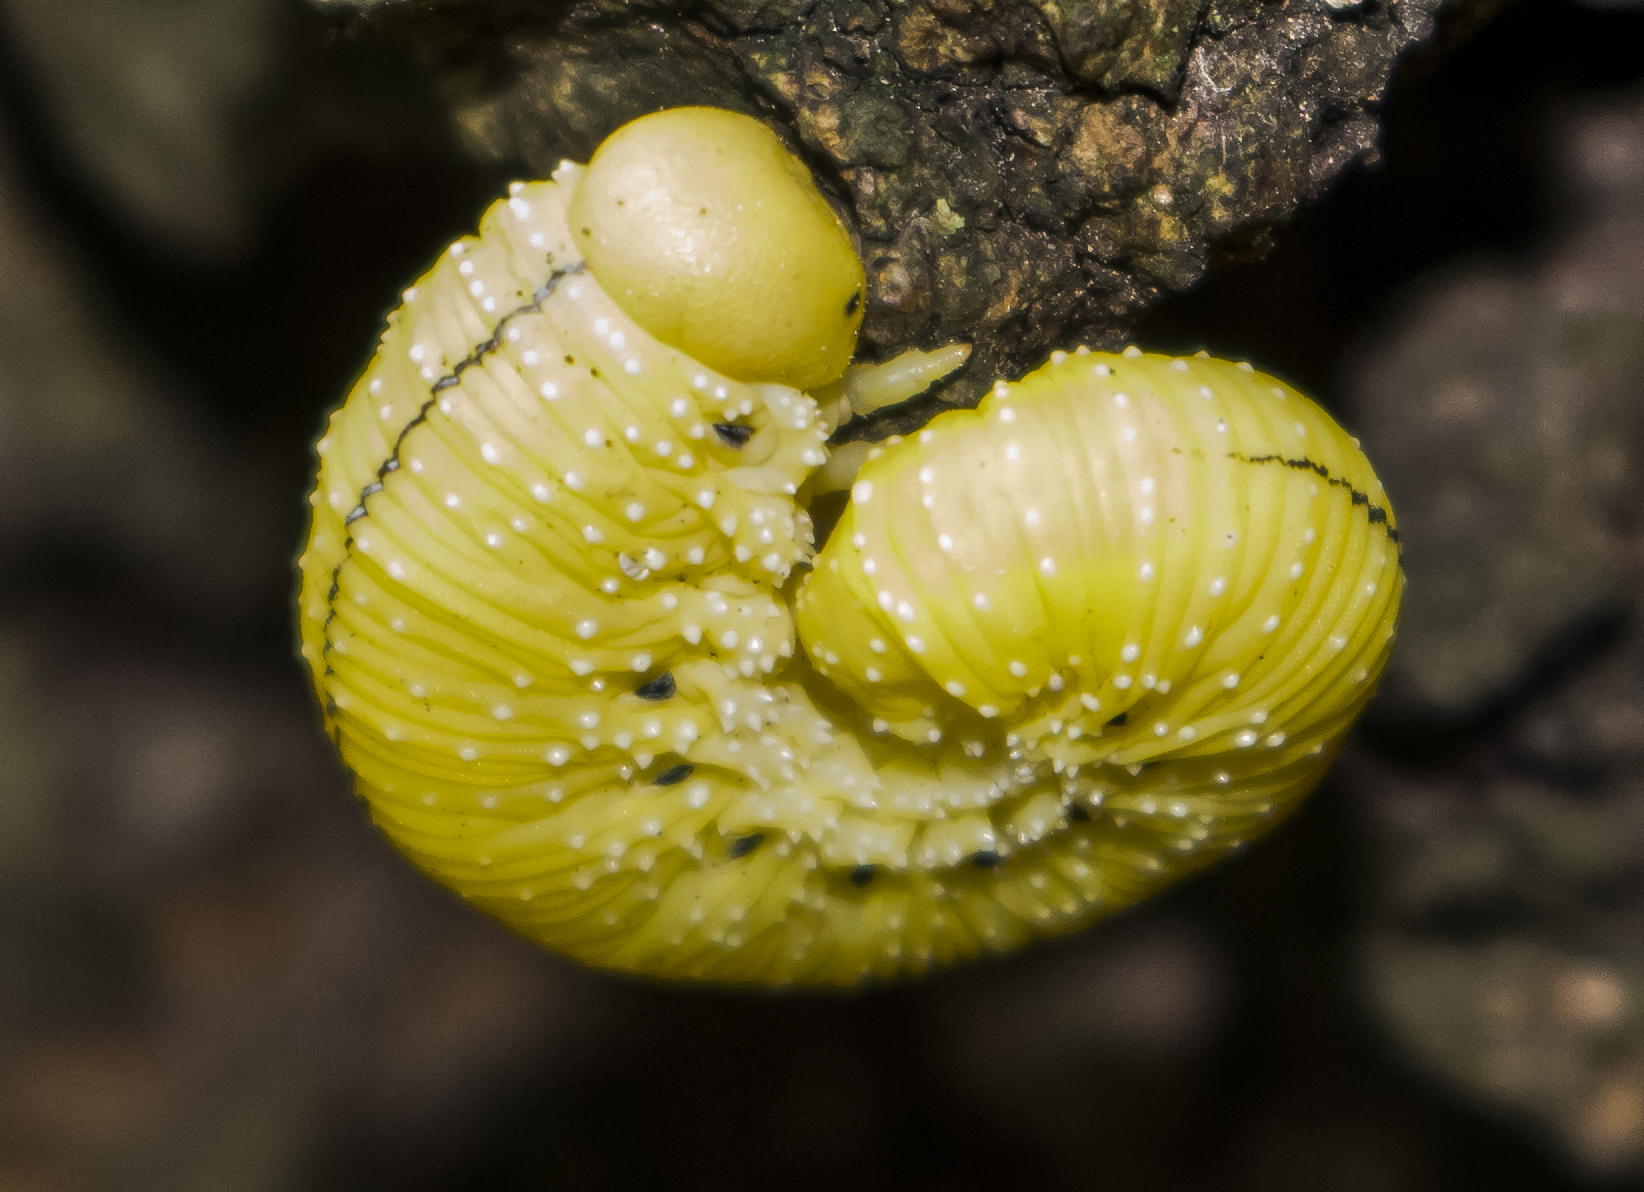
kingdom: Animalia
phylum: Arthropoda
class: Insecta
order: Hymenoptera
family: Cimbicidae
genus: Cimbex
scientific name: Cimbex americana
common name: Elm sawfly
